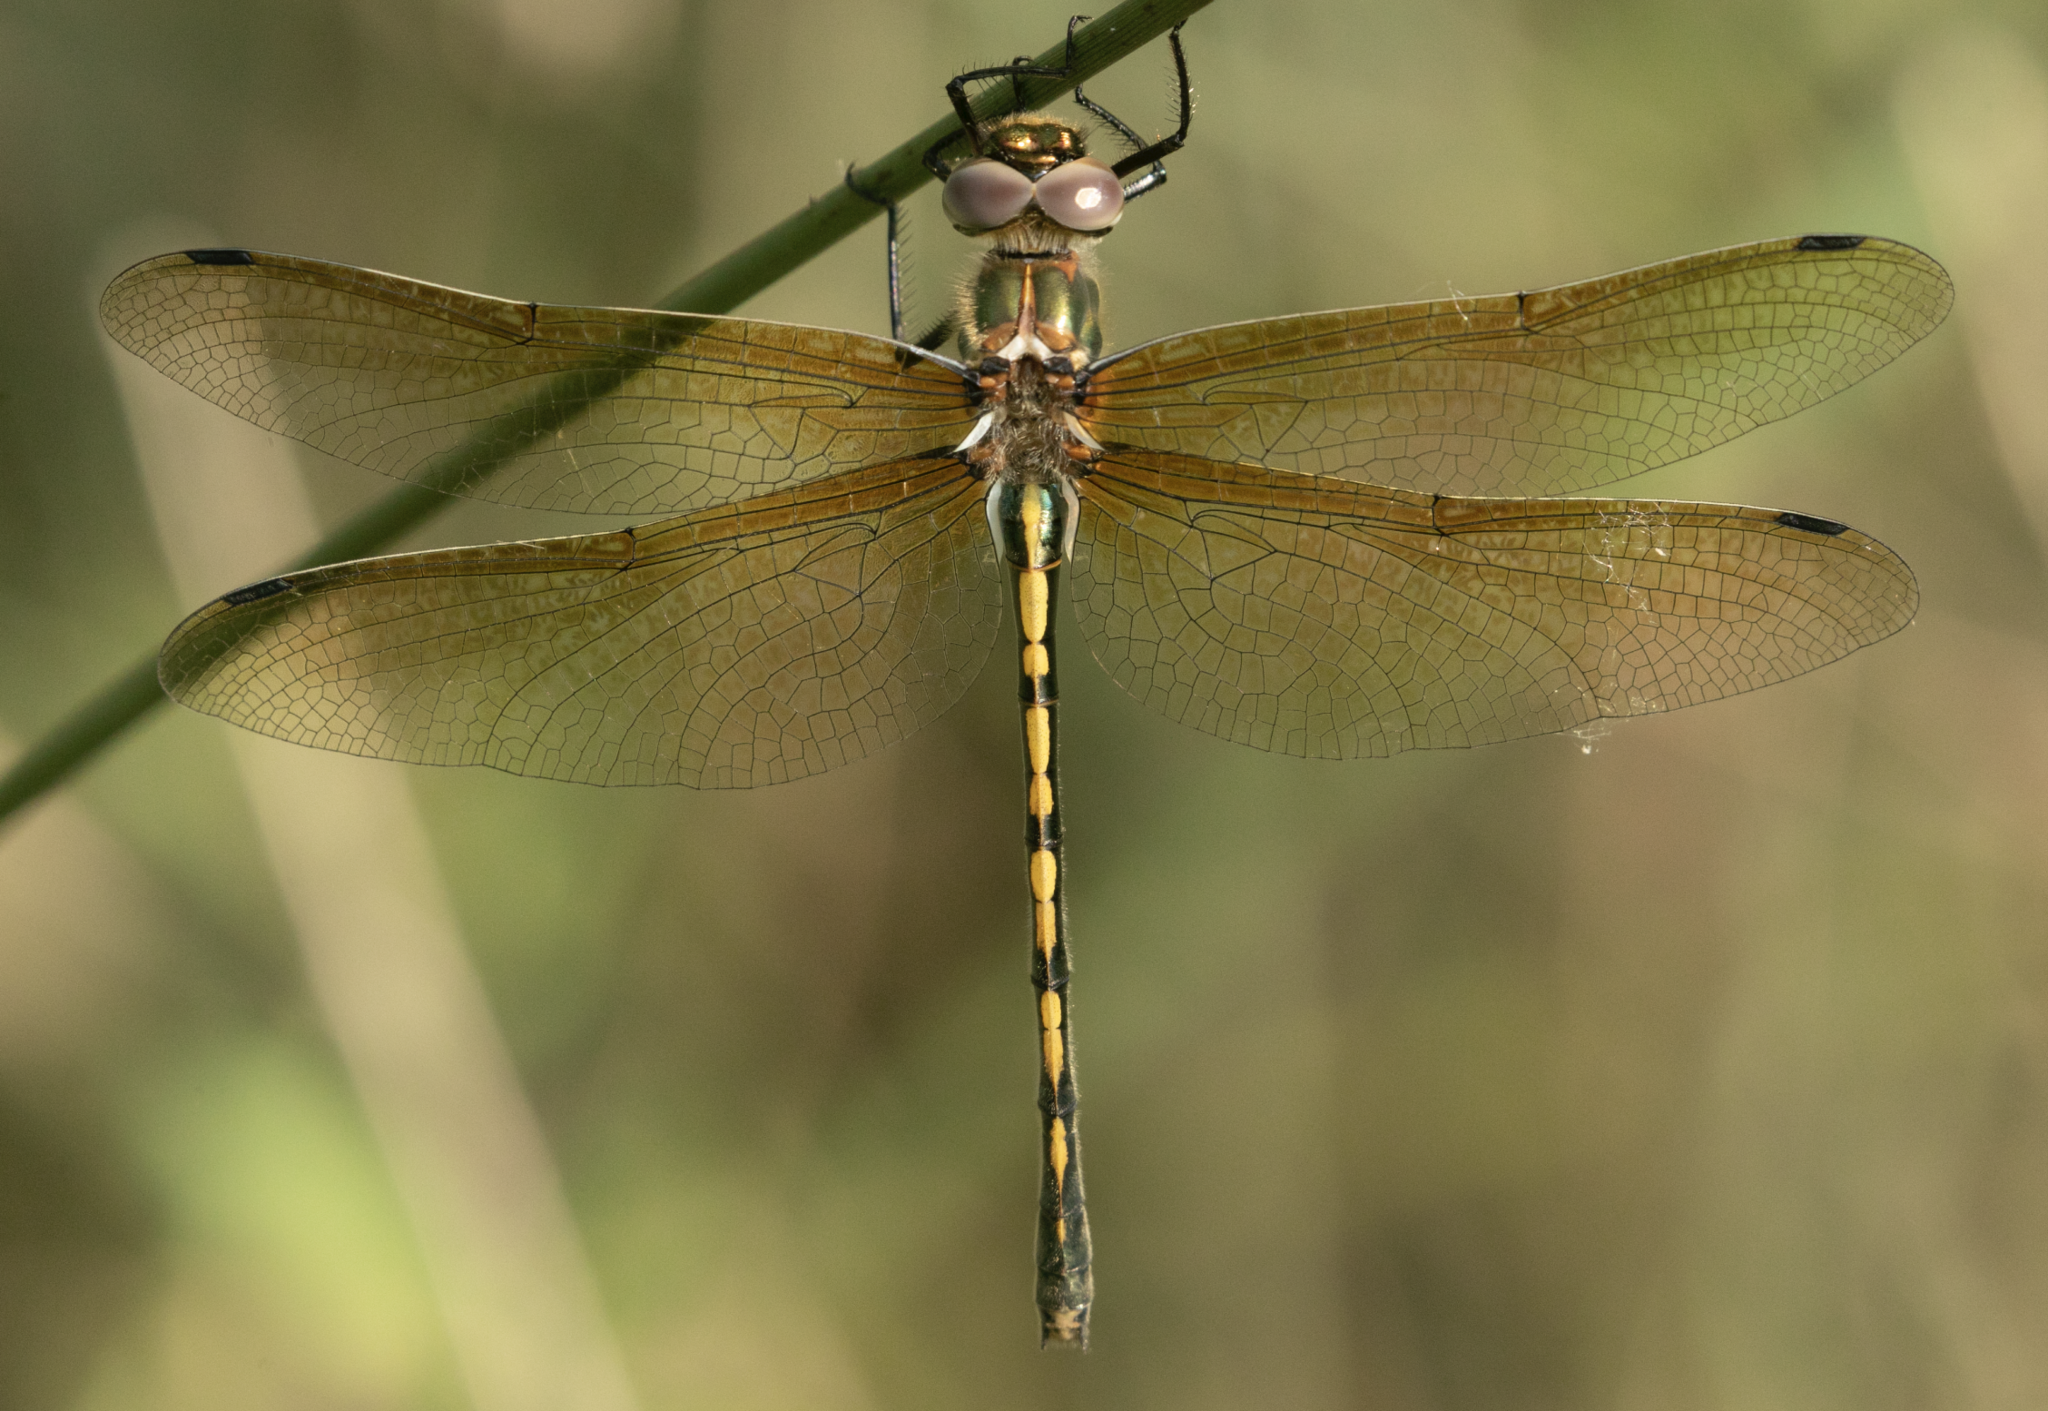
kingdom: Animalia
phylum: Arthropoda
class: Insecta
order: Odonata
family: Corduliidae
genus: Oxygastra
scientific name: Oxygastra curtisii
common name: Orange-spotted emerald
